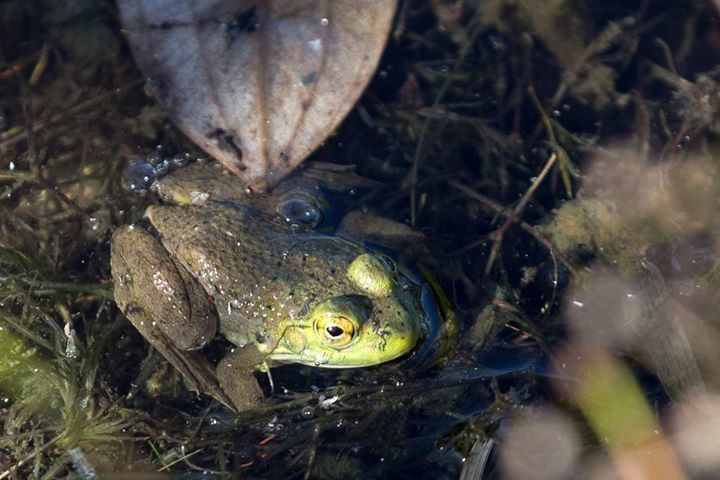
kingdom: Animalia
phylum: Chordata
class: Amphibia
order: Anura
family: Ranidae
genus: Lithobates
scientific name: Lithobates catesbeianus
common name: American bullfrog
